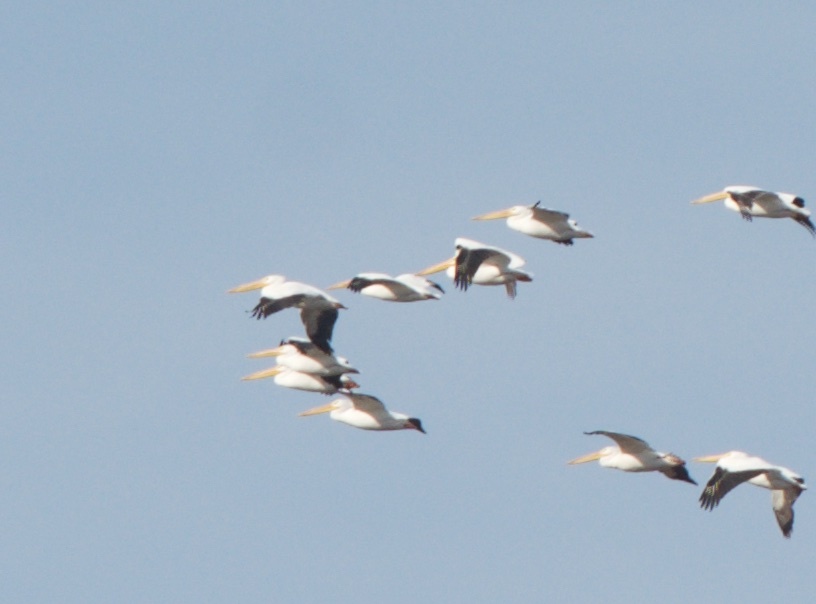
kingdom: Animalia
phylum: Chordata
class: Aves
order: Pelecaniformes
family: Pelecanidae
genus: Pelecanus
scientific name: Pelecanus erythrorhynchos
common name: American white pelican
